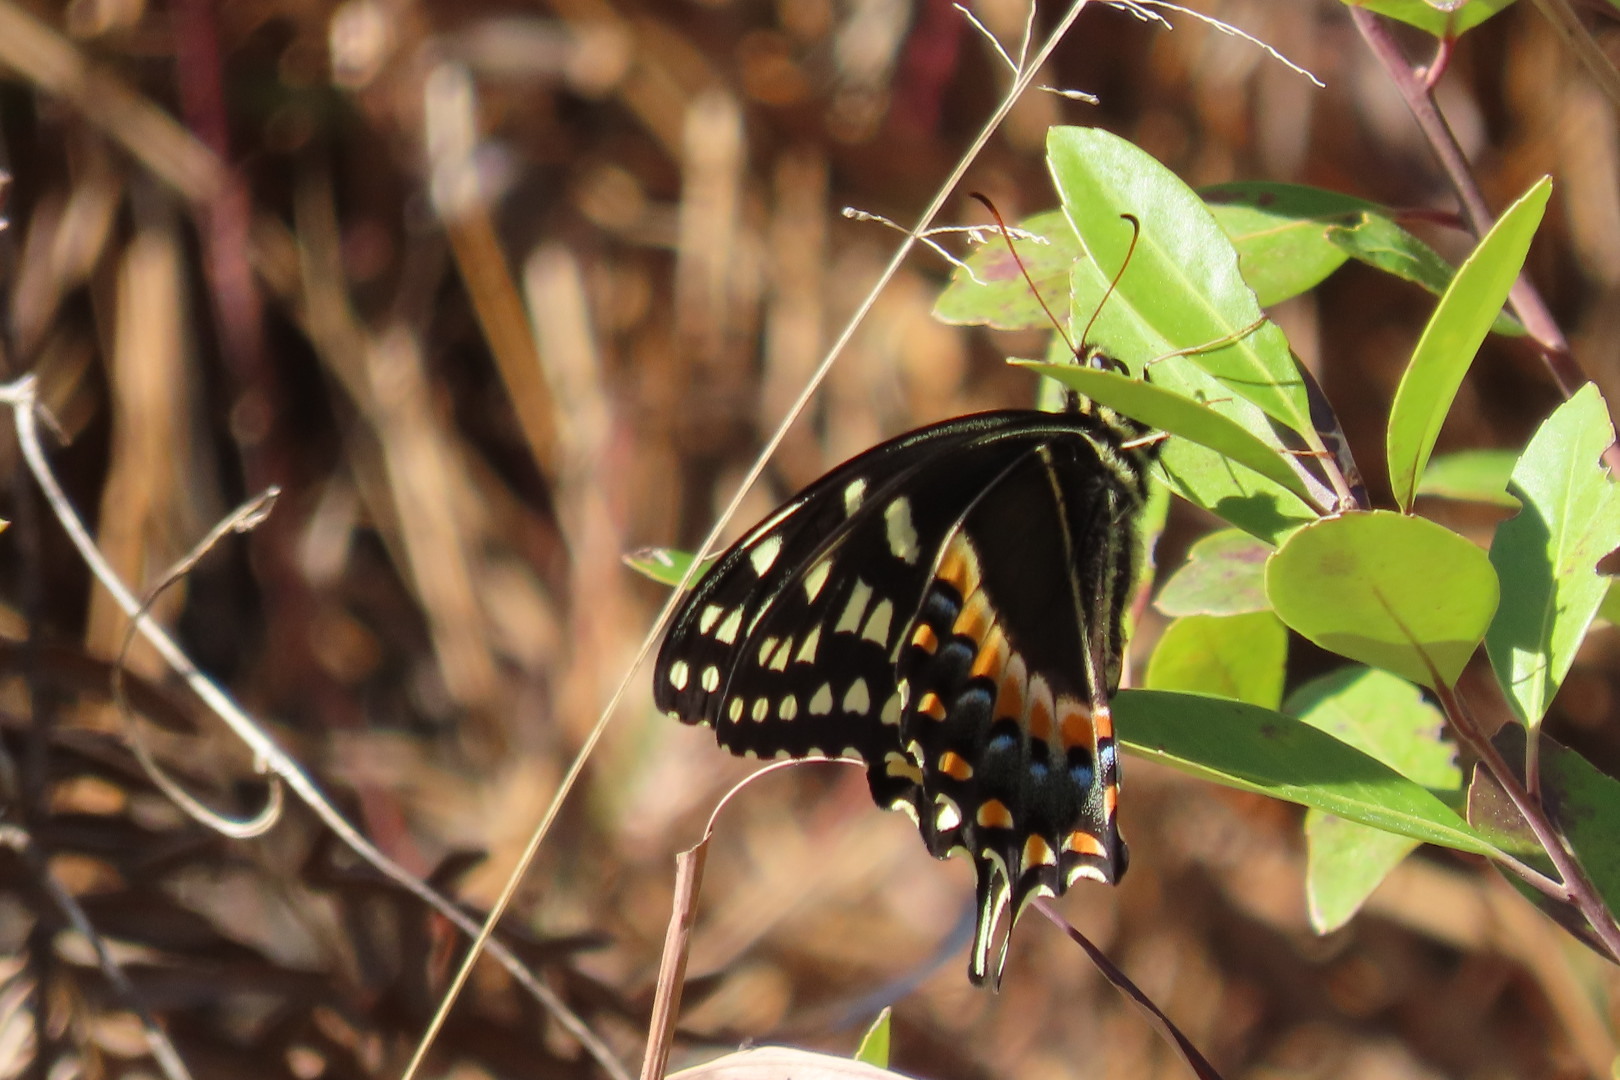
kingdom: Animalia
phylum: Arthropoda
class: Insecta
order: Lepidoptera
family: Papilionidae
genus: Papilio
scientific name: Papilio palamedes
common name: Palamedes swallowtail
